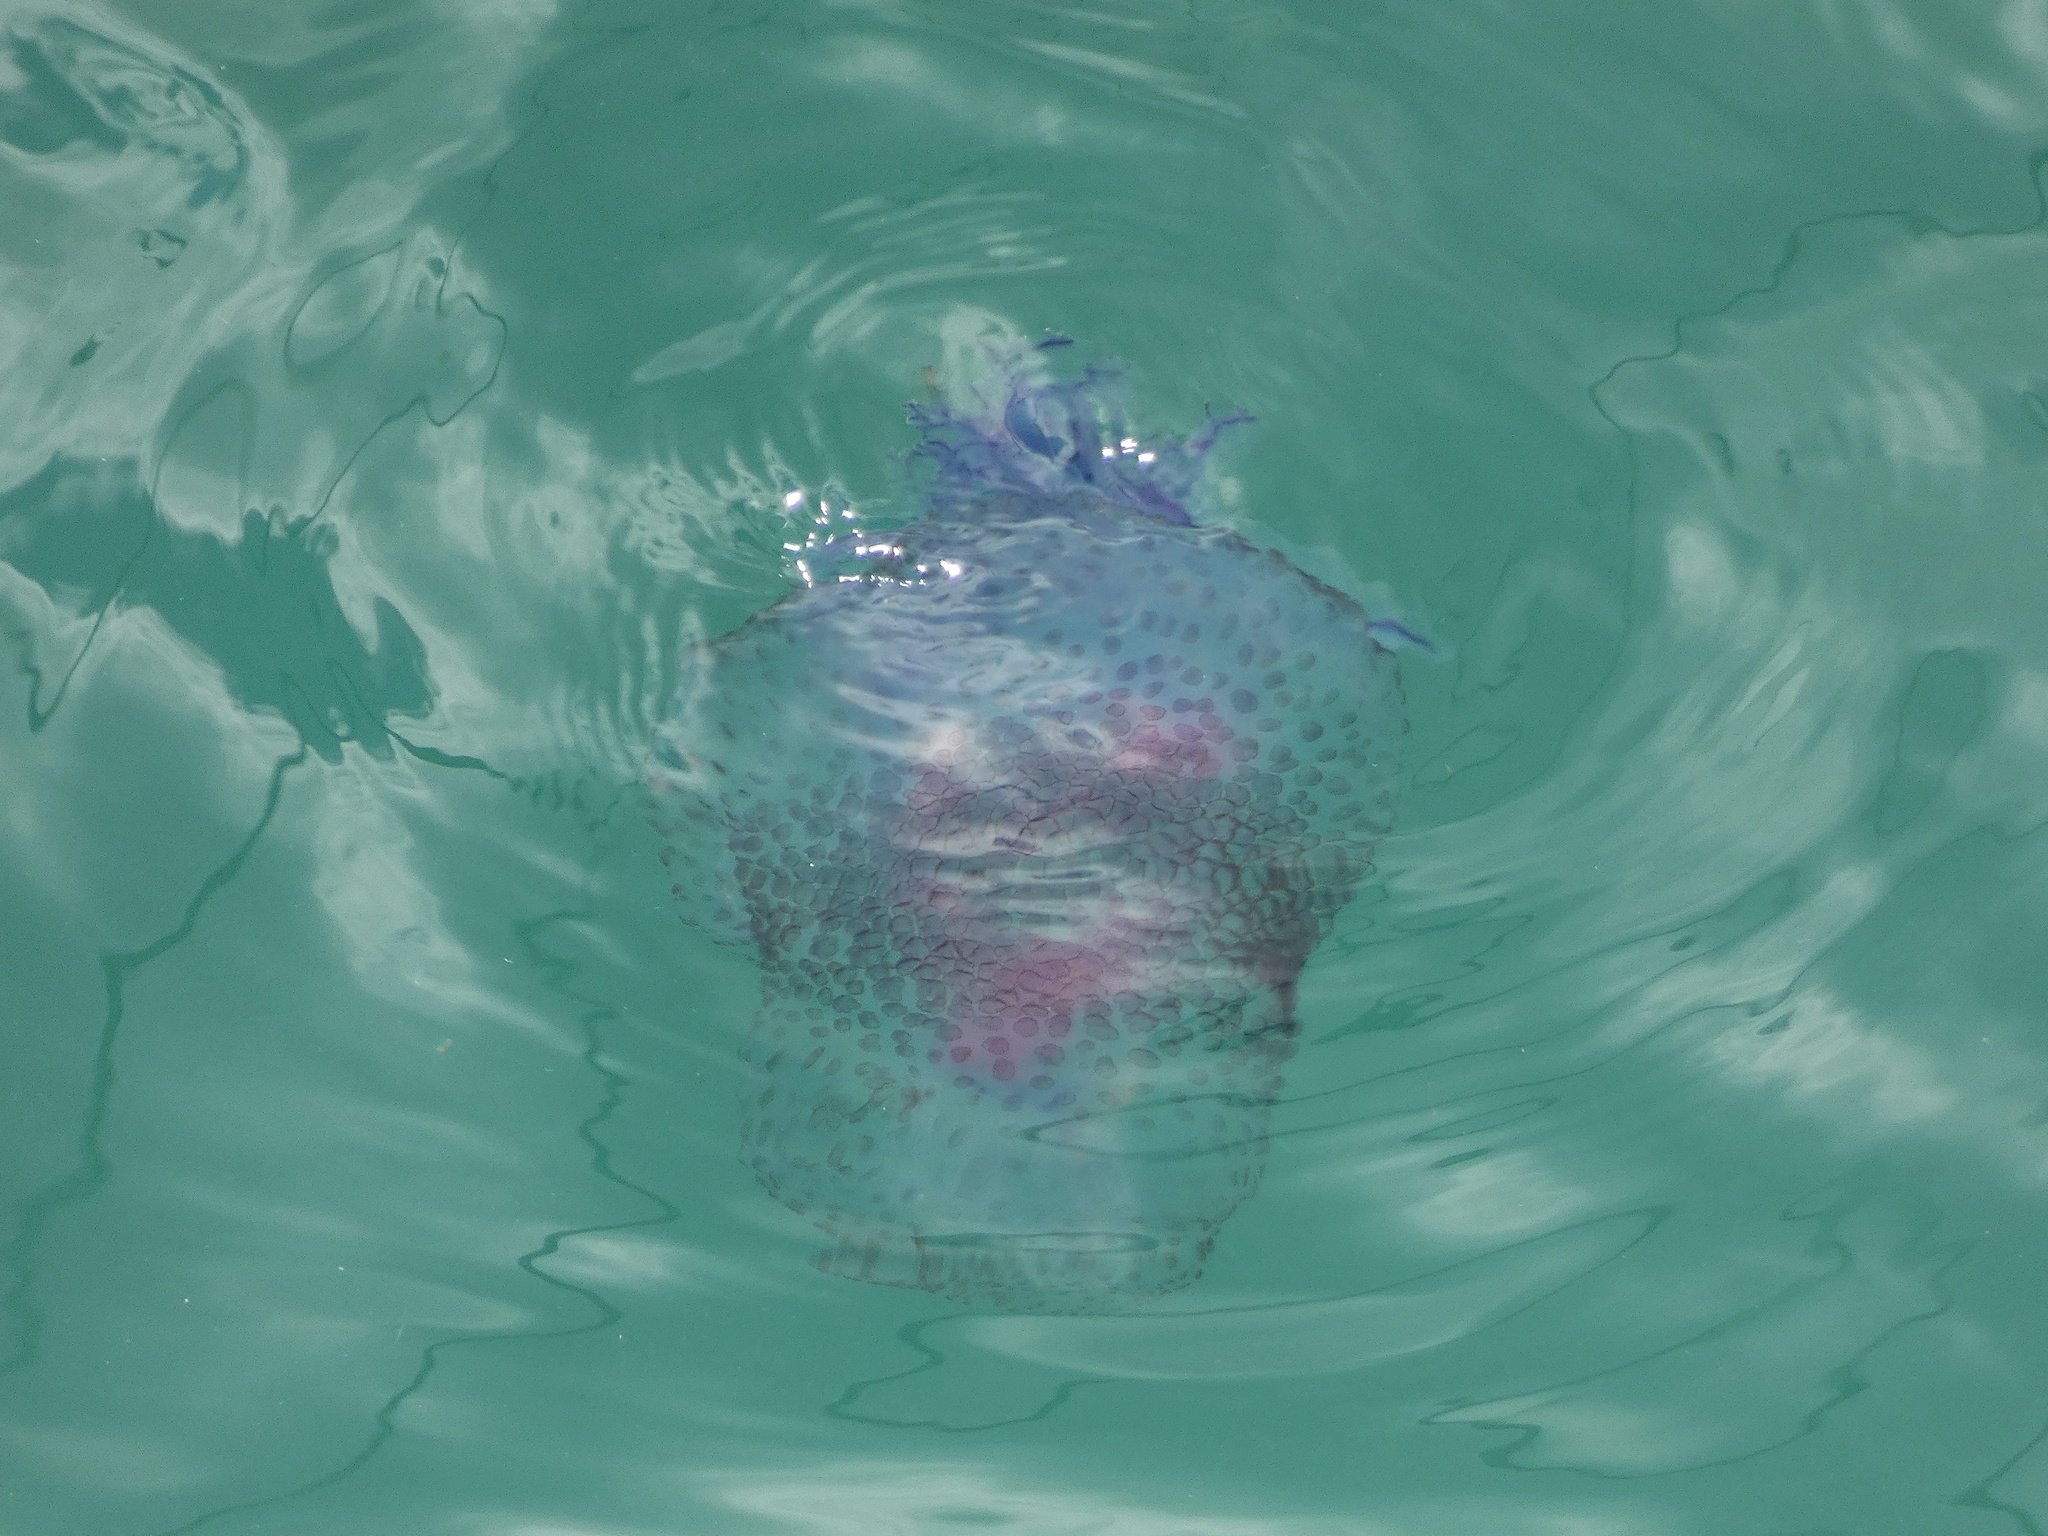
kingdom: Animalia
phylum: Cnidaria
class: Scyphozoa
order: Rhizostomeae
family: Lychnorhizidae
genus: Anomalorhiza
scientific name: Anomalorhiza shawi
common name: Jellyfish
